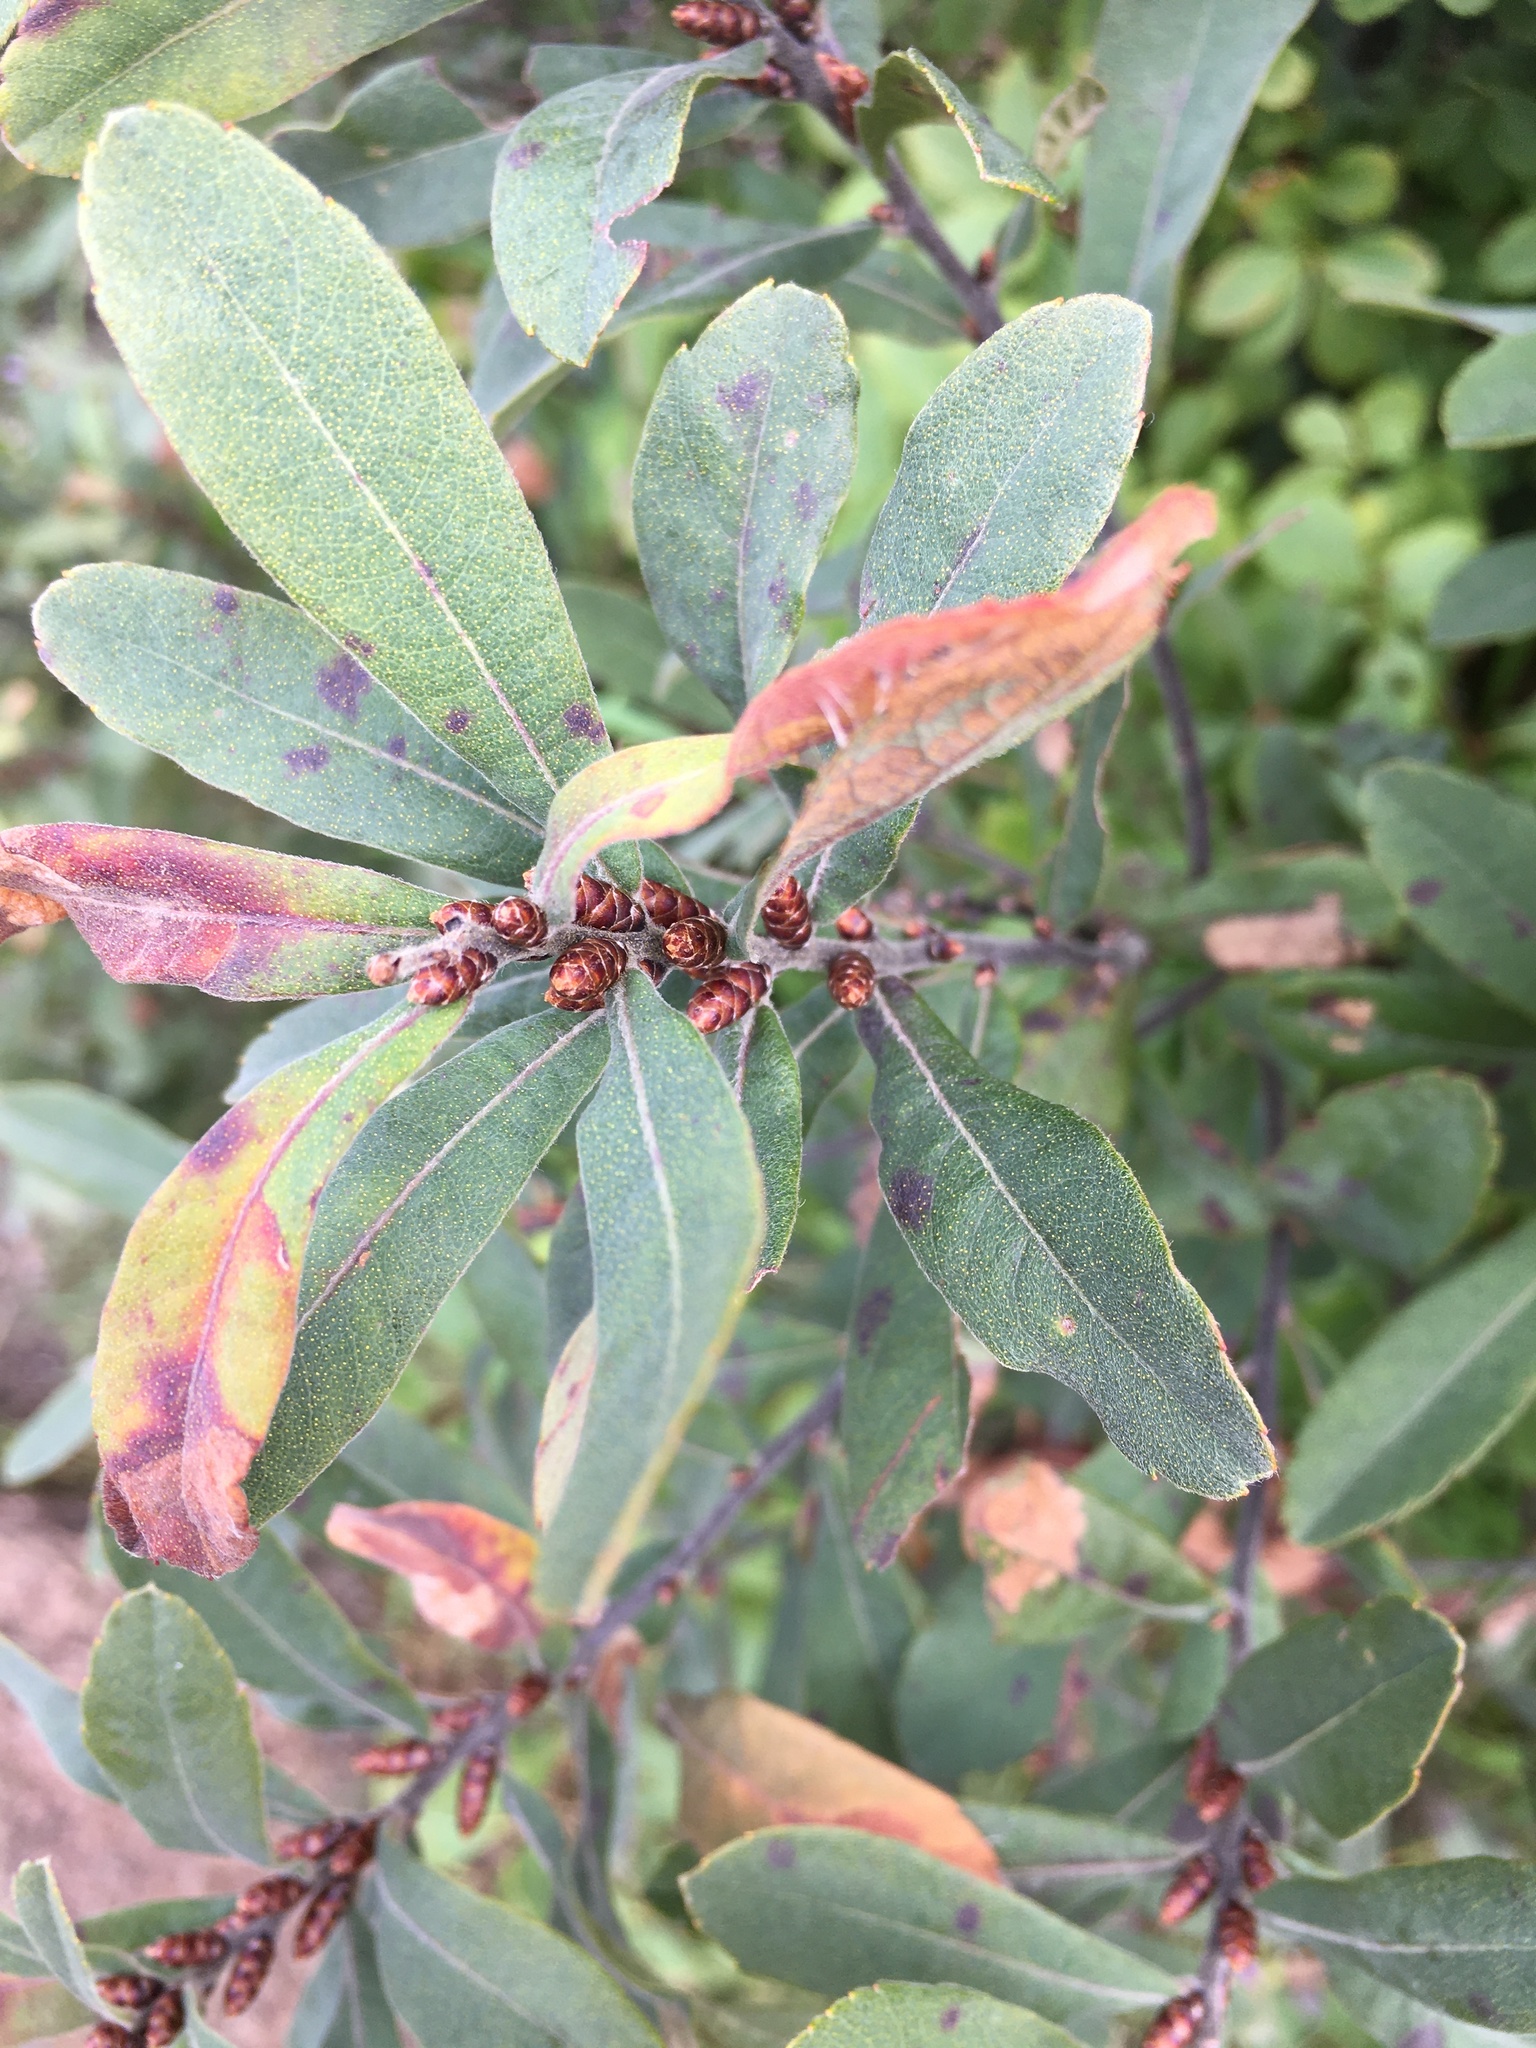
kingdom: Plantae
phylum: Tracheophyta
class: Magnoliopsida
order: Fagales
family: Myricaceae
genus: Myrica
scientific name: Myrica gale
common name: Sweet gale
